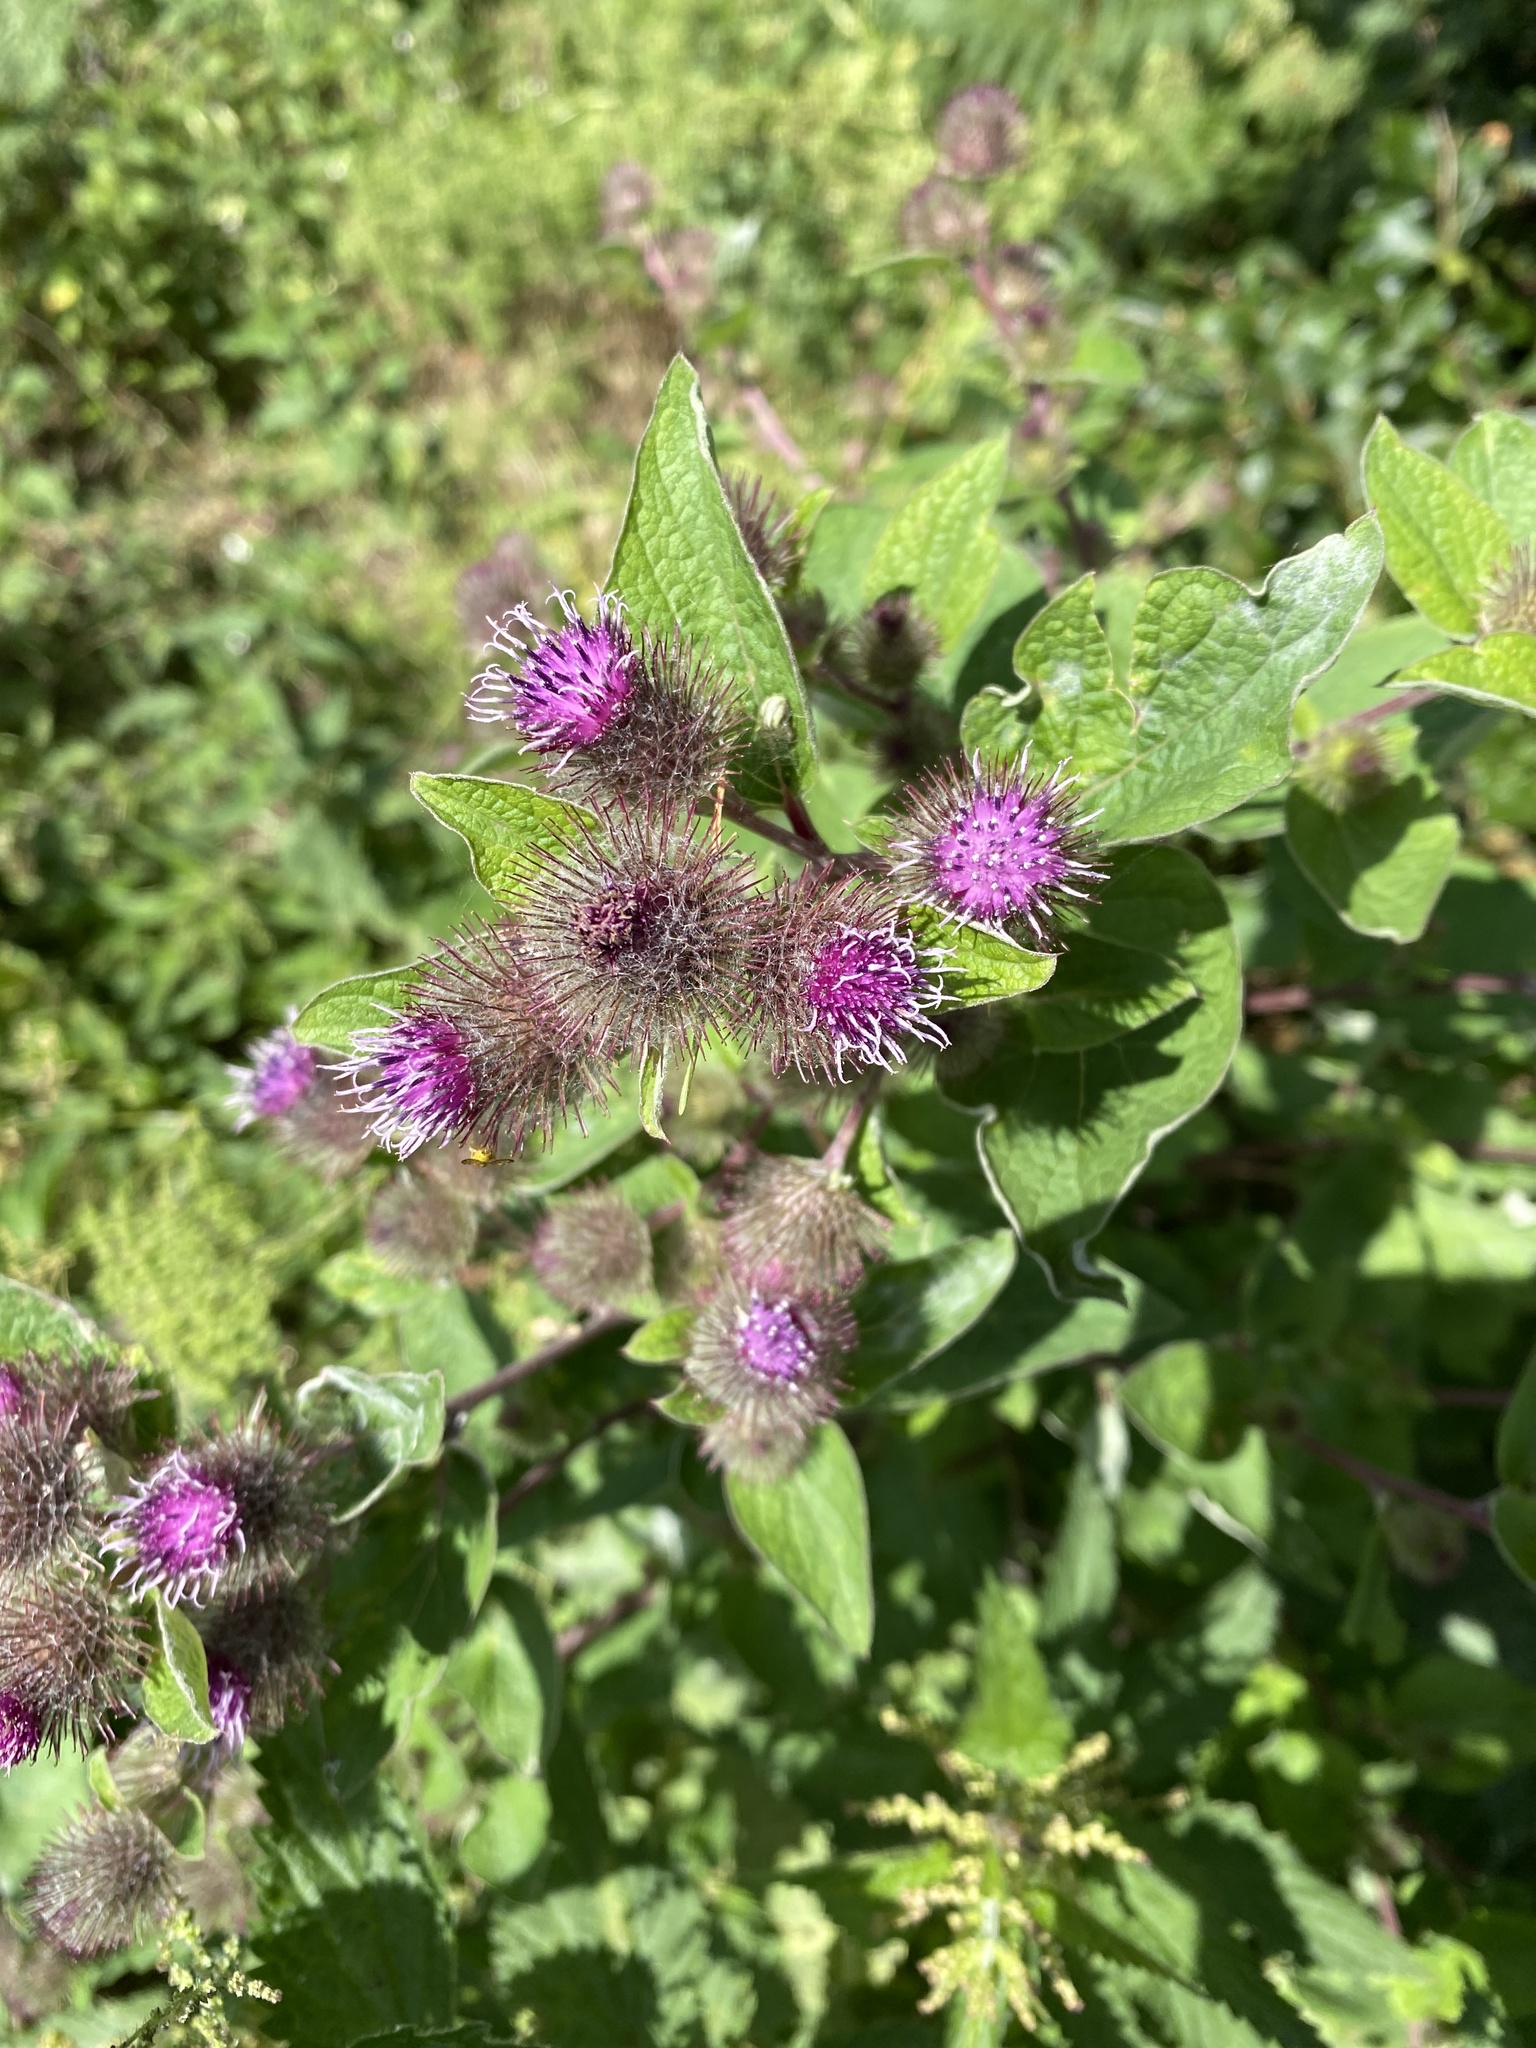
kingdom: Plantae
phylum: Tracheophyta
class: Magnoliopsida
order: Asterales
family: Asteraceae
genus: Arctium
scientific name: Arctium minus
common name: Lesser burdock
